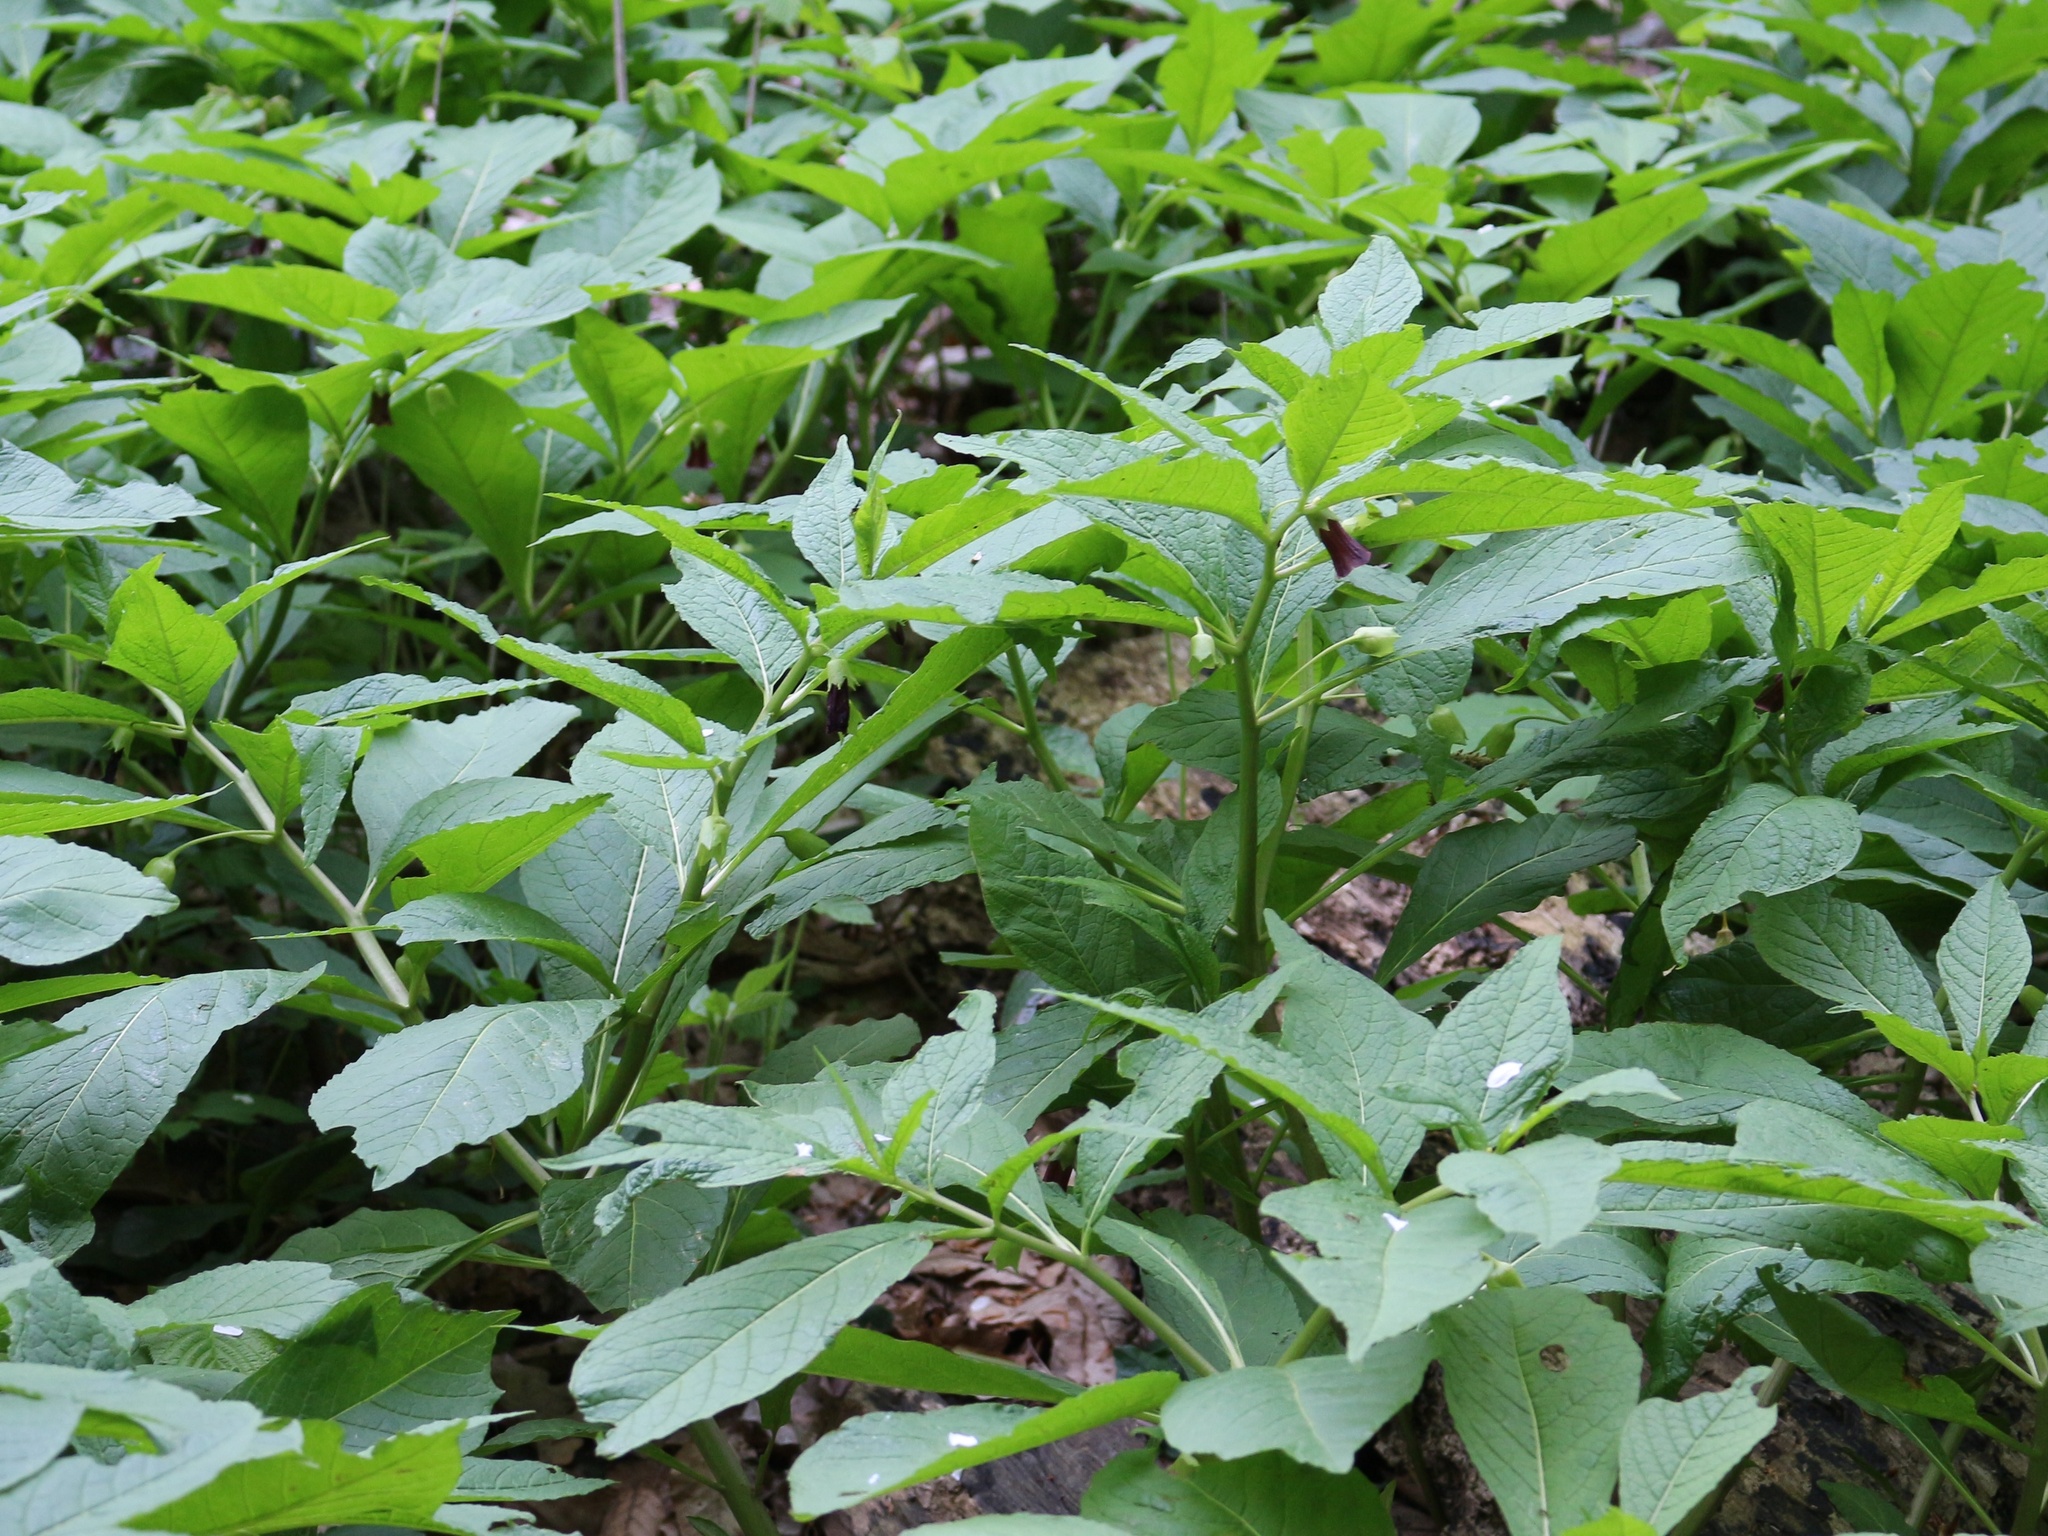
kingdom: Plantae
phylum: Tracheophyta
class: Magnoliopsida
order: Solanales
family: Solanaceae
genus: Scopolia
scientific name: Scopolia carniolica
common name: Scopolia
